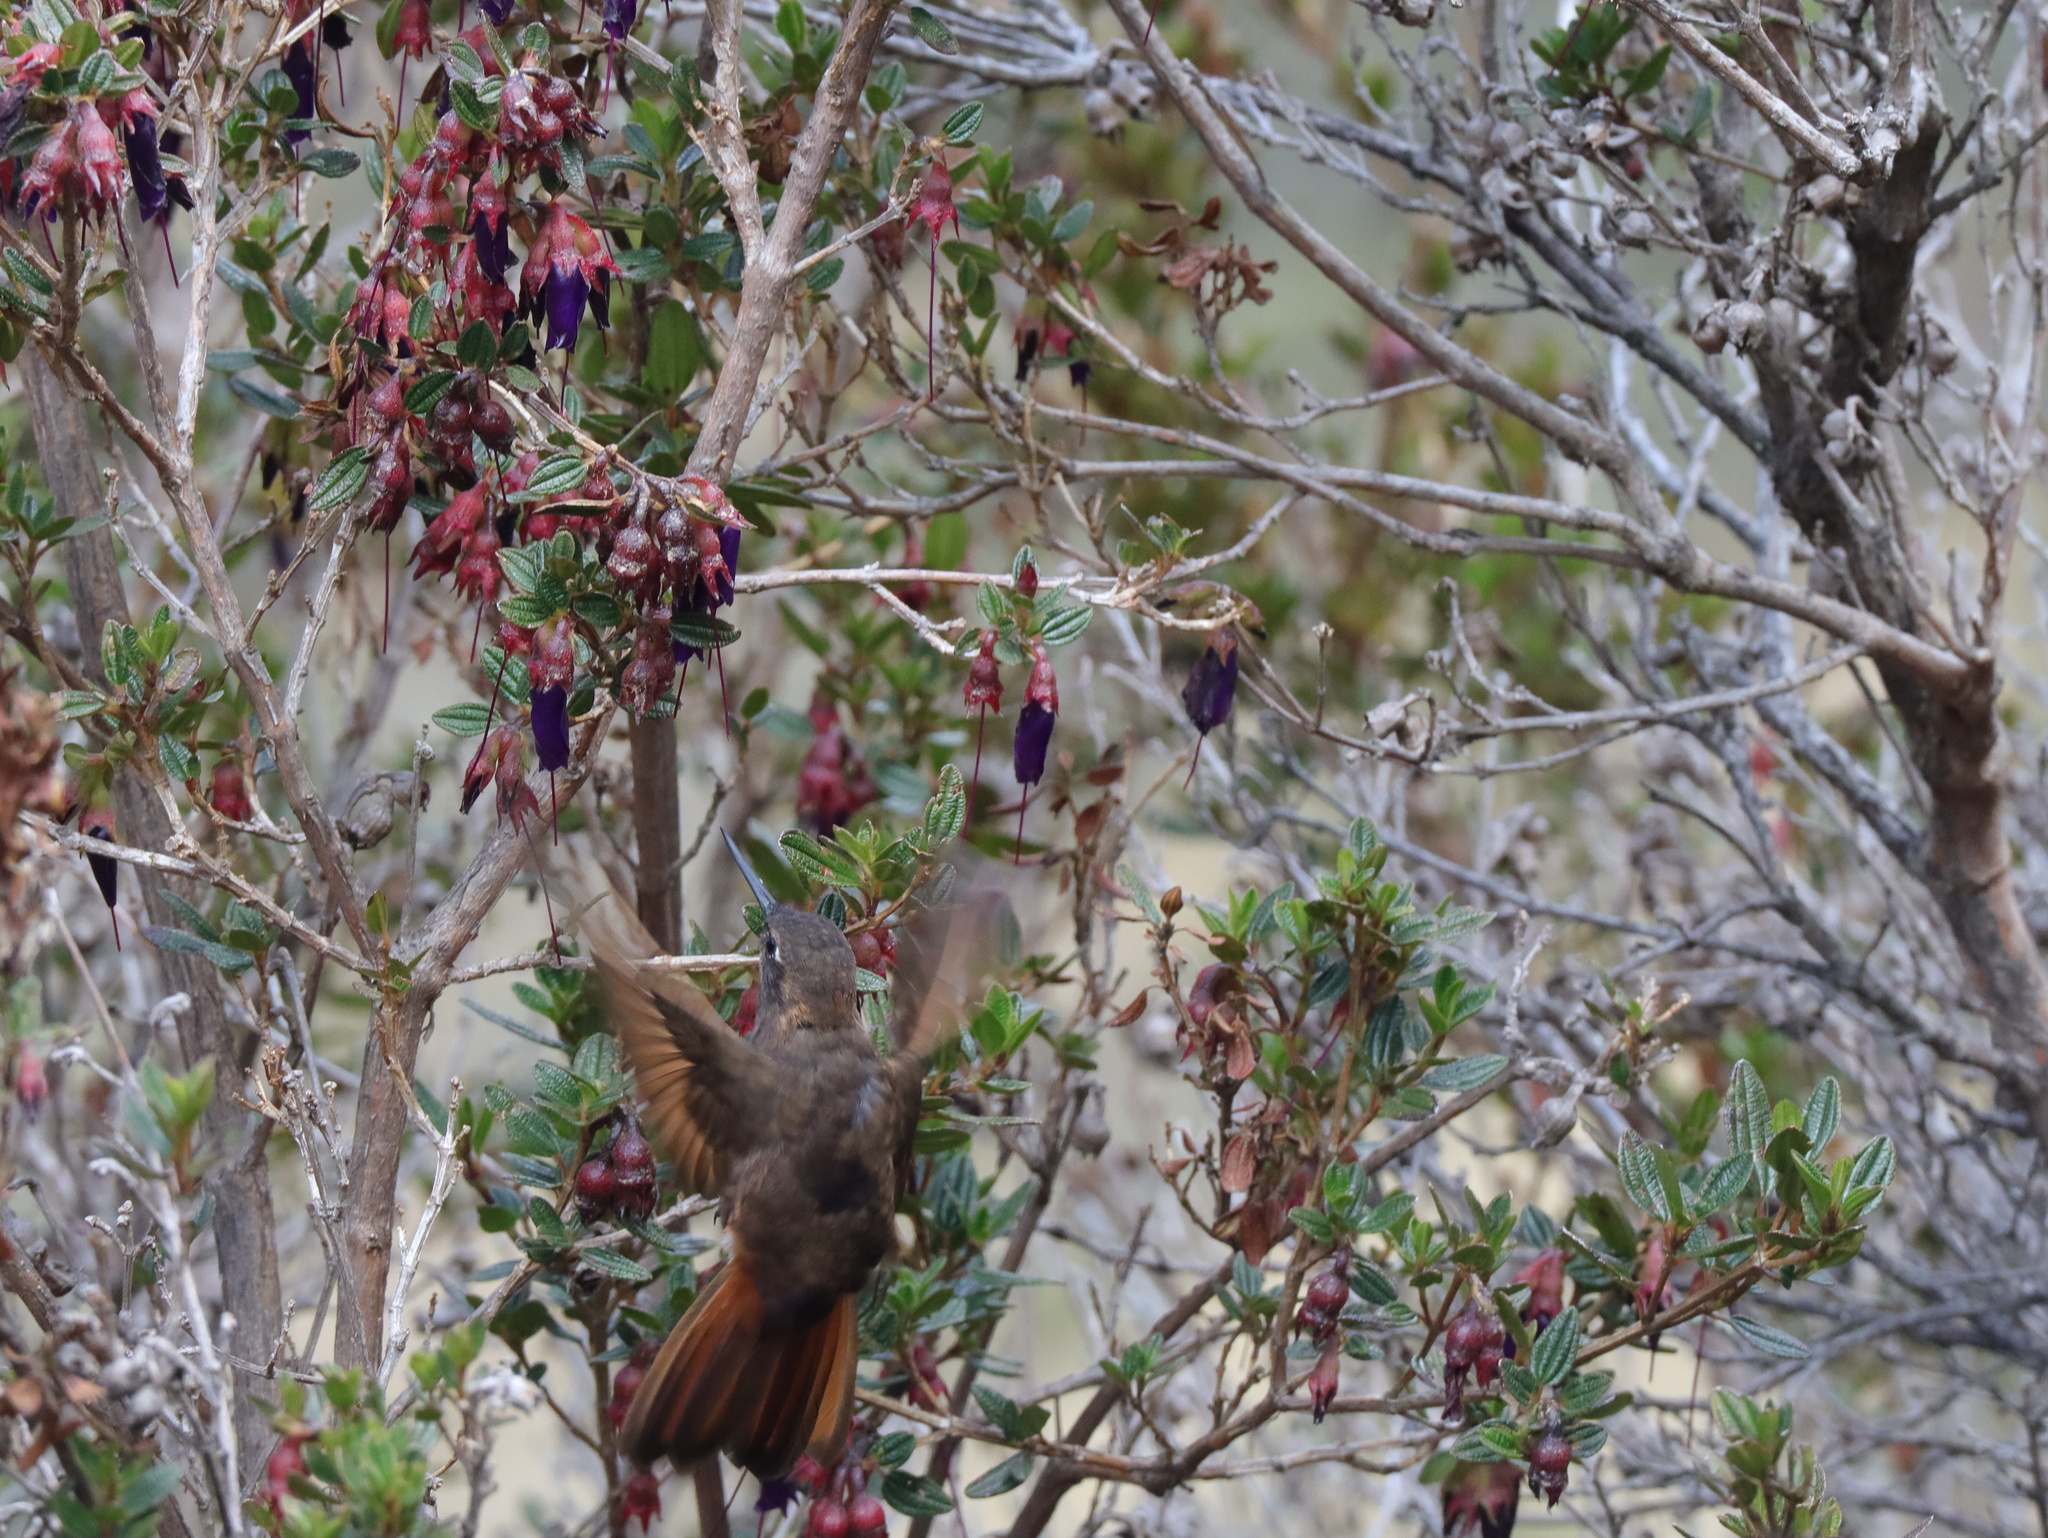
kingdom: Animalia
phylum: Chordata
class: Aves
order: Apodiformes
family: Trochilidae
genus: Aglaeactis
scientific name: Aglaeactis castelnaudii
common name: White-tufted sunbeam
